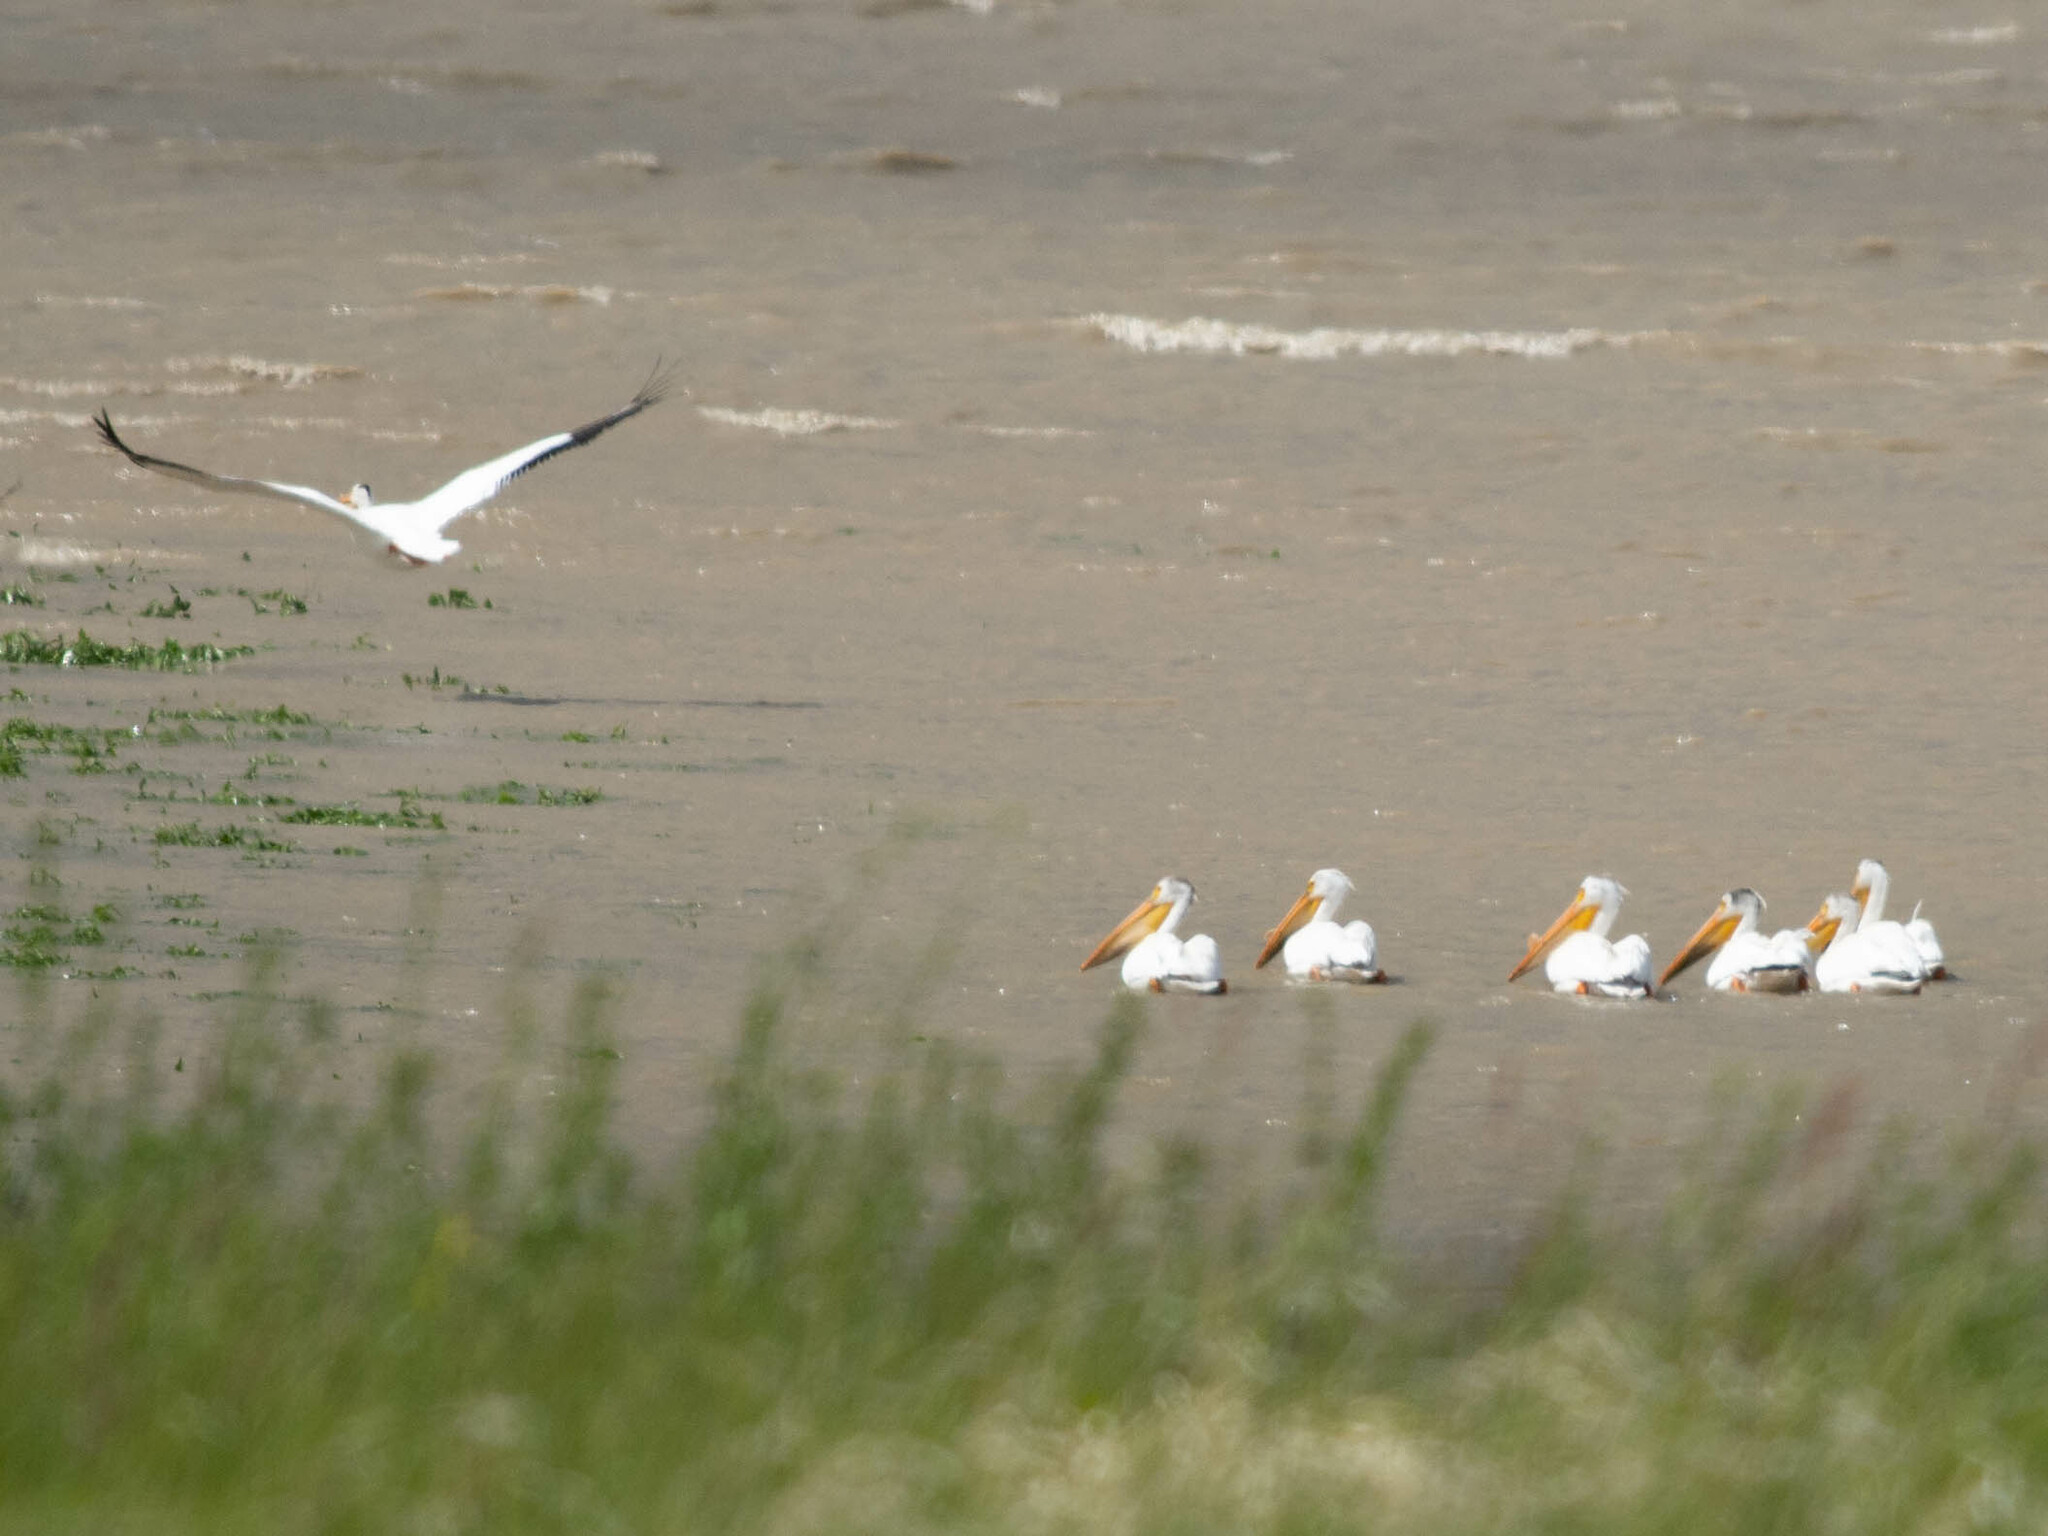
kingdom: Animalia
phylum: Chordata
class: Aves
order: Pelecaniformes
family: Pelecanidae
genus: Pelecanus
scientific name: Pelecanus erythrorhynchos
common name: American white pelican
